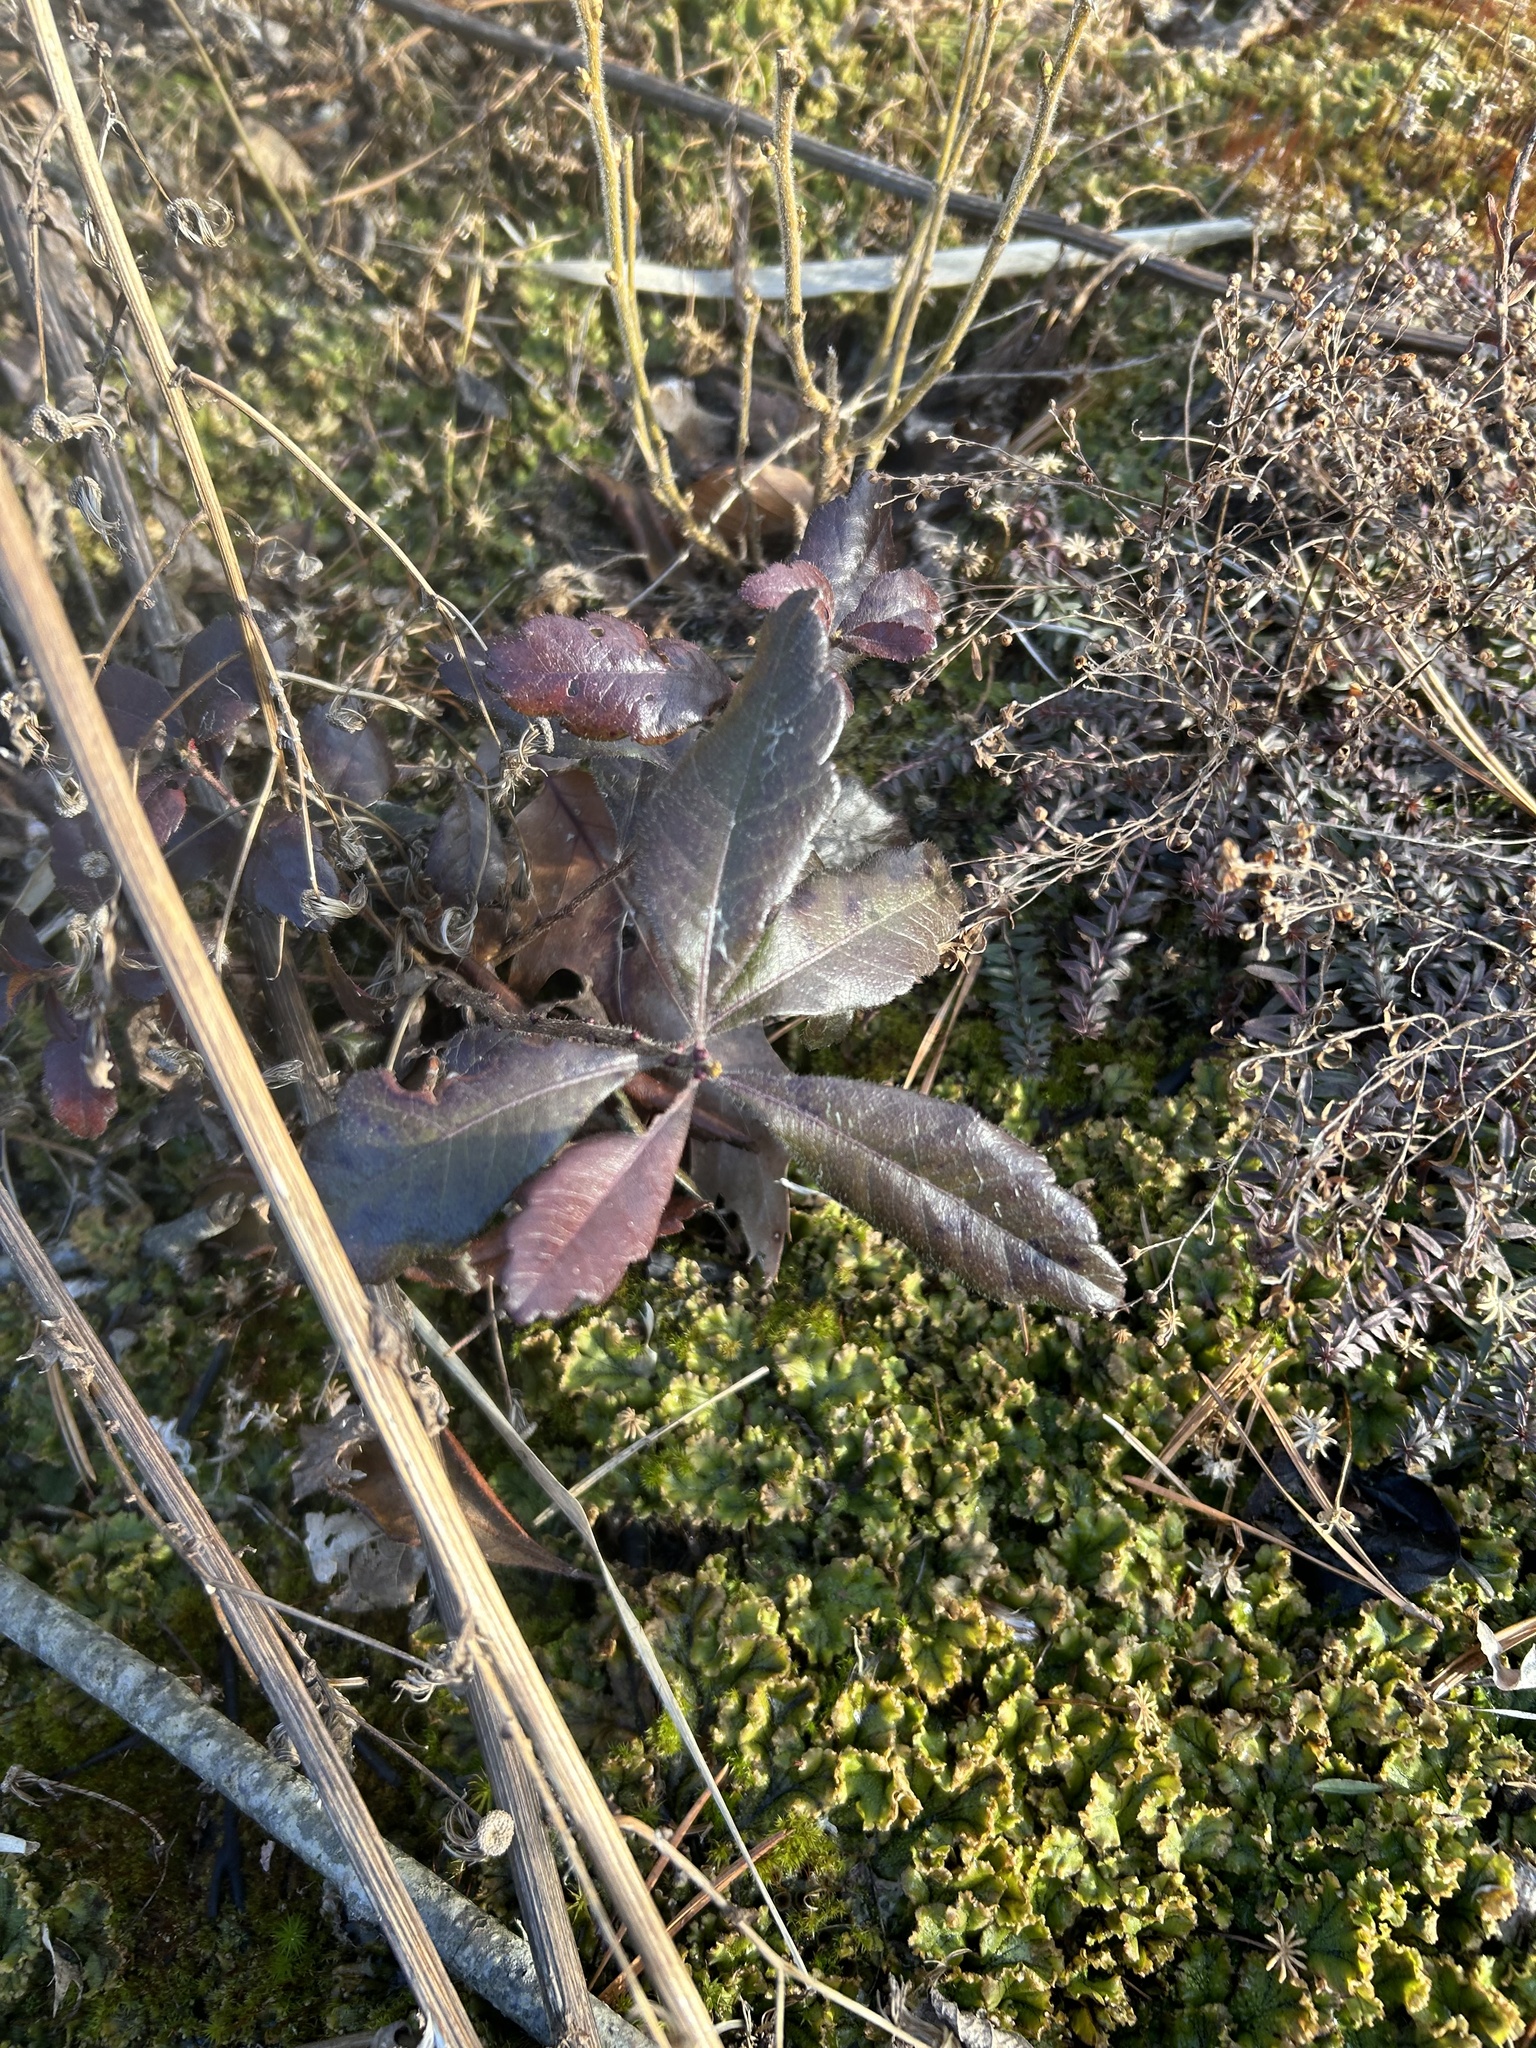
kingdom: Plantae
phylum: Tracheophyta
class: Magnoliopsida
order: Fagales
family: Myricaceae
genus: Morella
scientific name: Morella pensylvanica
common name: Northern bayberry
